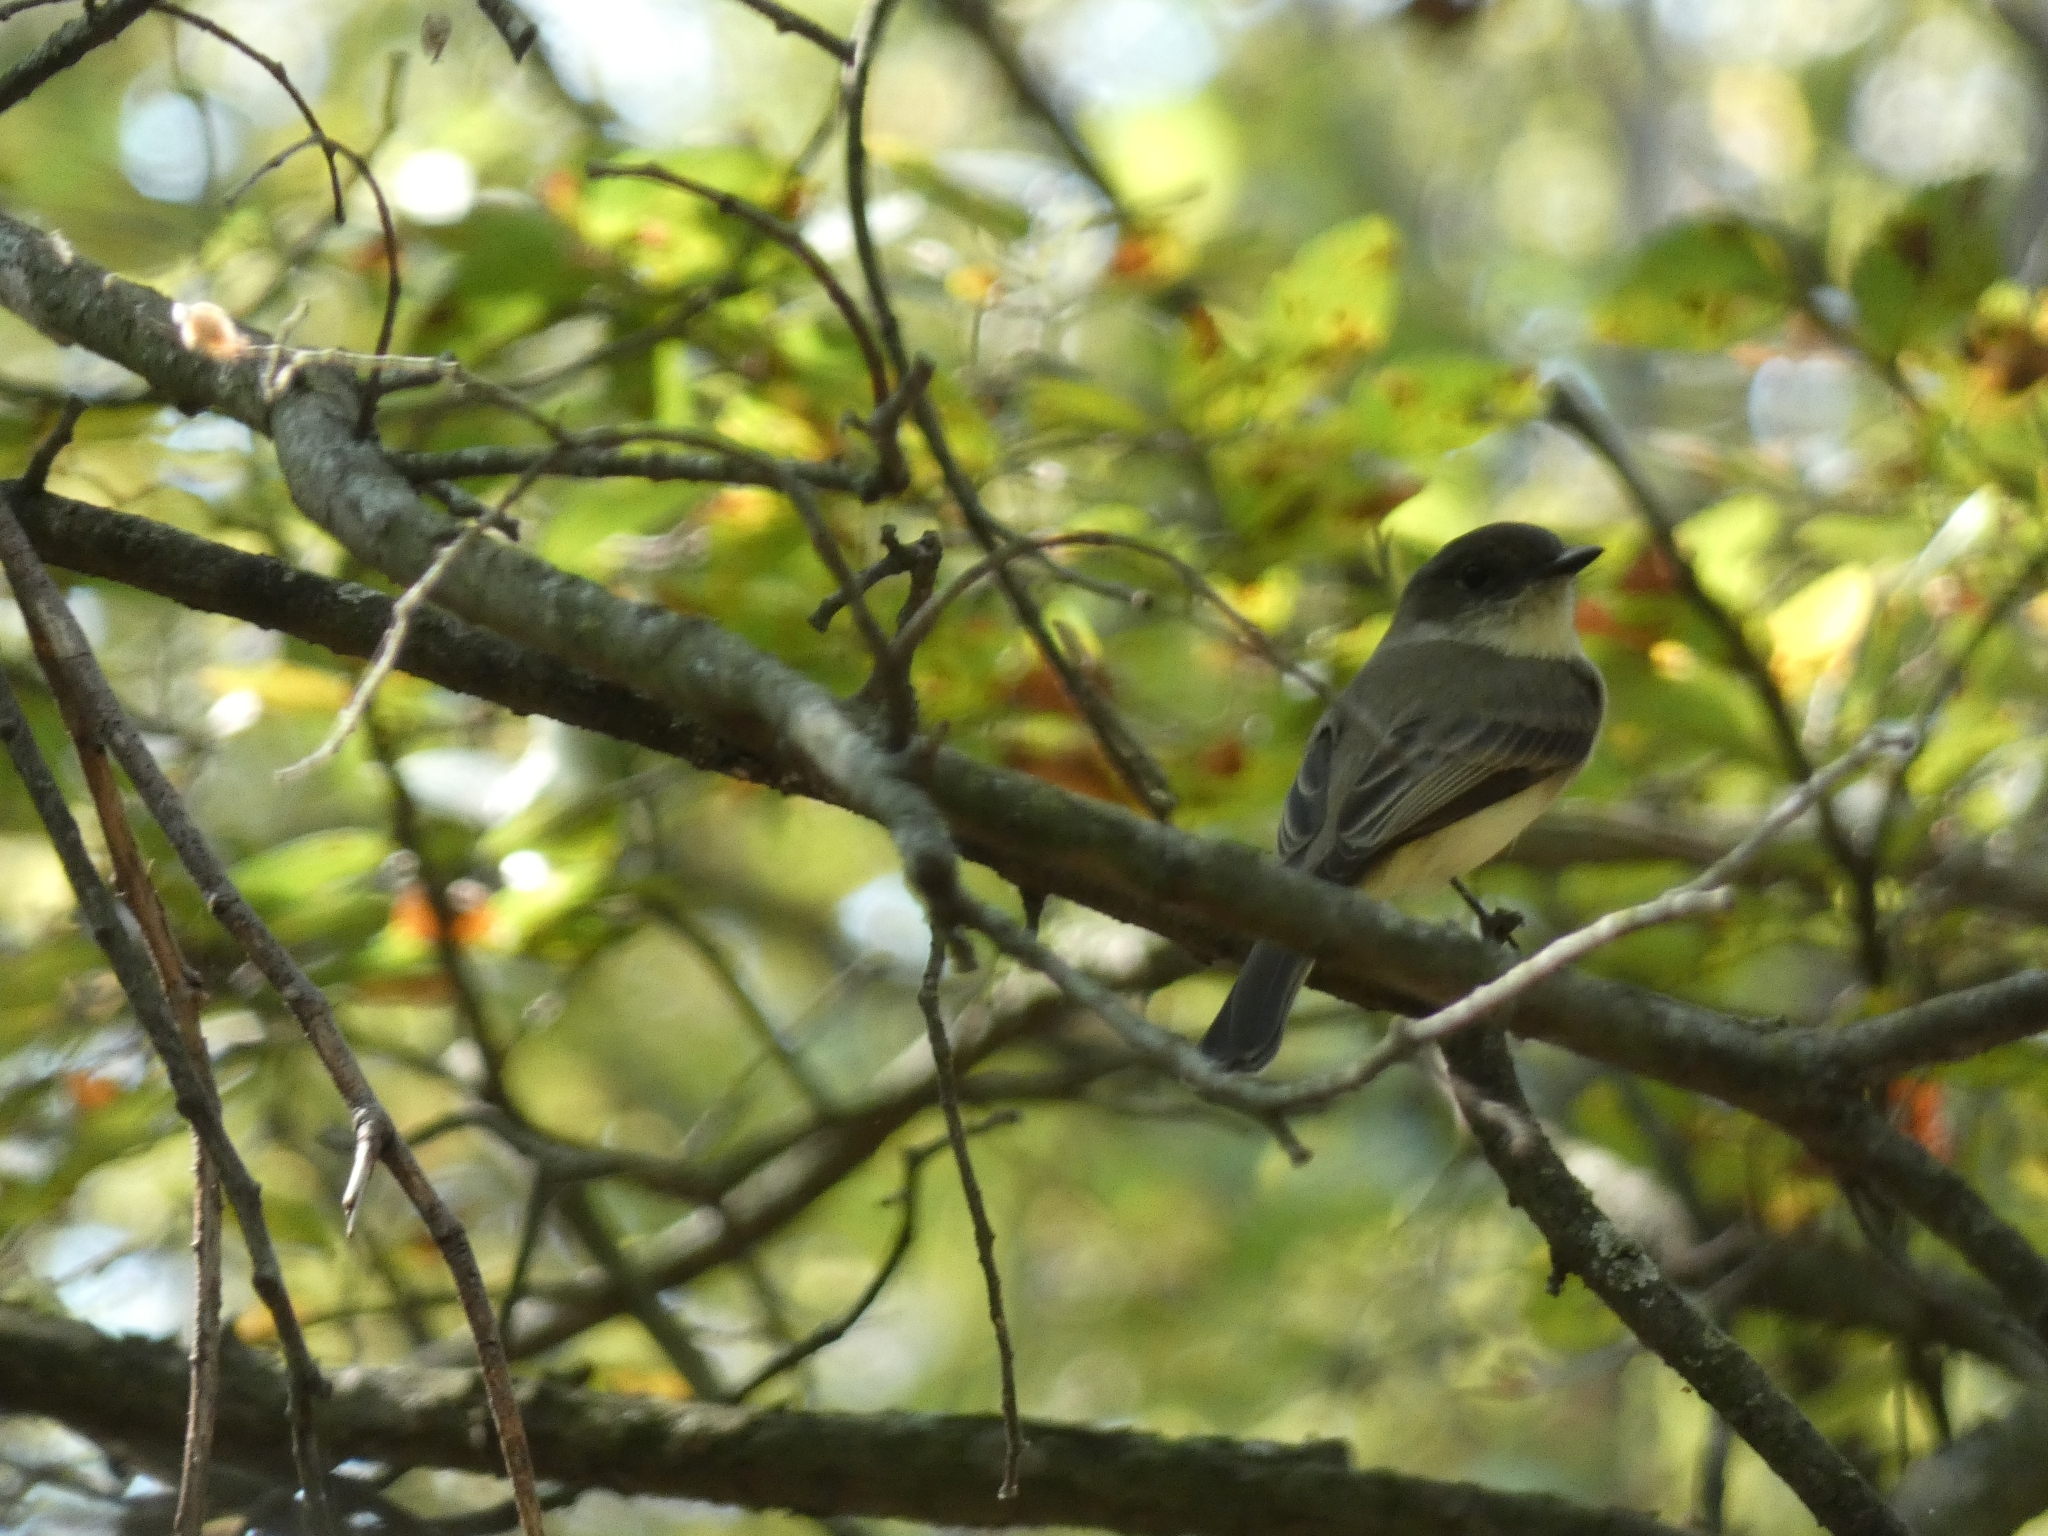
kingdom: Animalia
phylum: Chordata
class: Aves
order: Passeriformes
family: Tyrannidae
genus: Sayornis
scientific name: Sayornis phoebe
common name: Eastern phoebe
